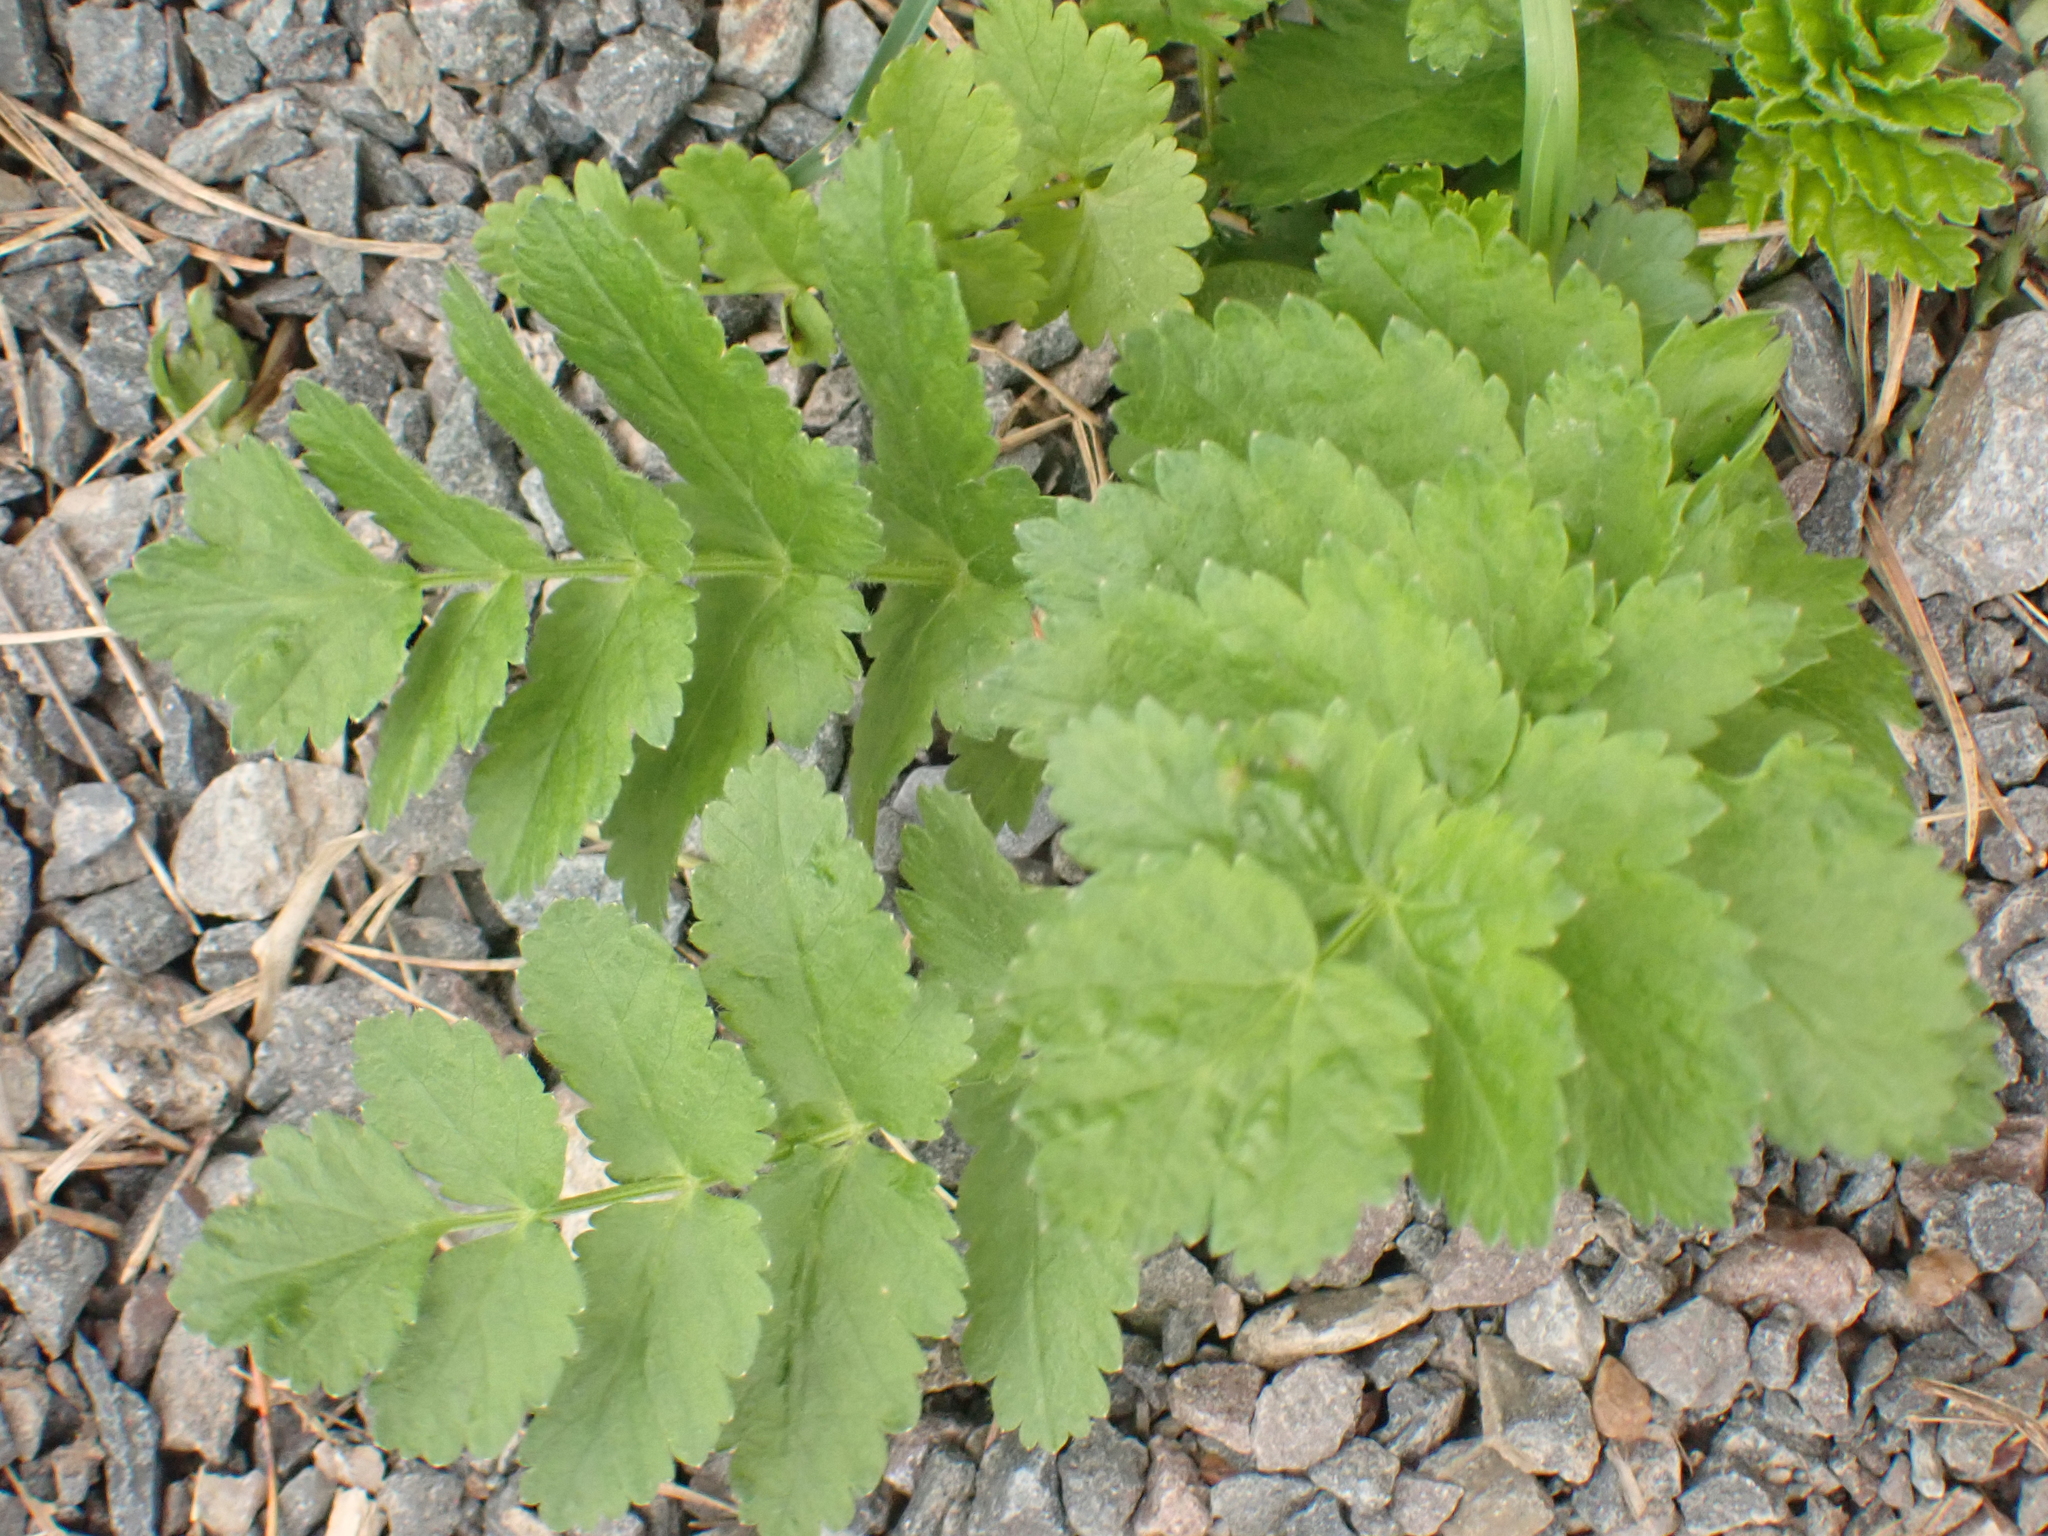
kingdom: Plantae
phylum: Tracheophyta
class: Magnoliopsida
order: Apiales
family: Apiaceae
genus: Pastinaca
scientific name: Pastinaca sativa
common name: Wild parsnip
